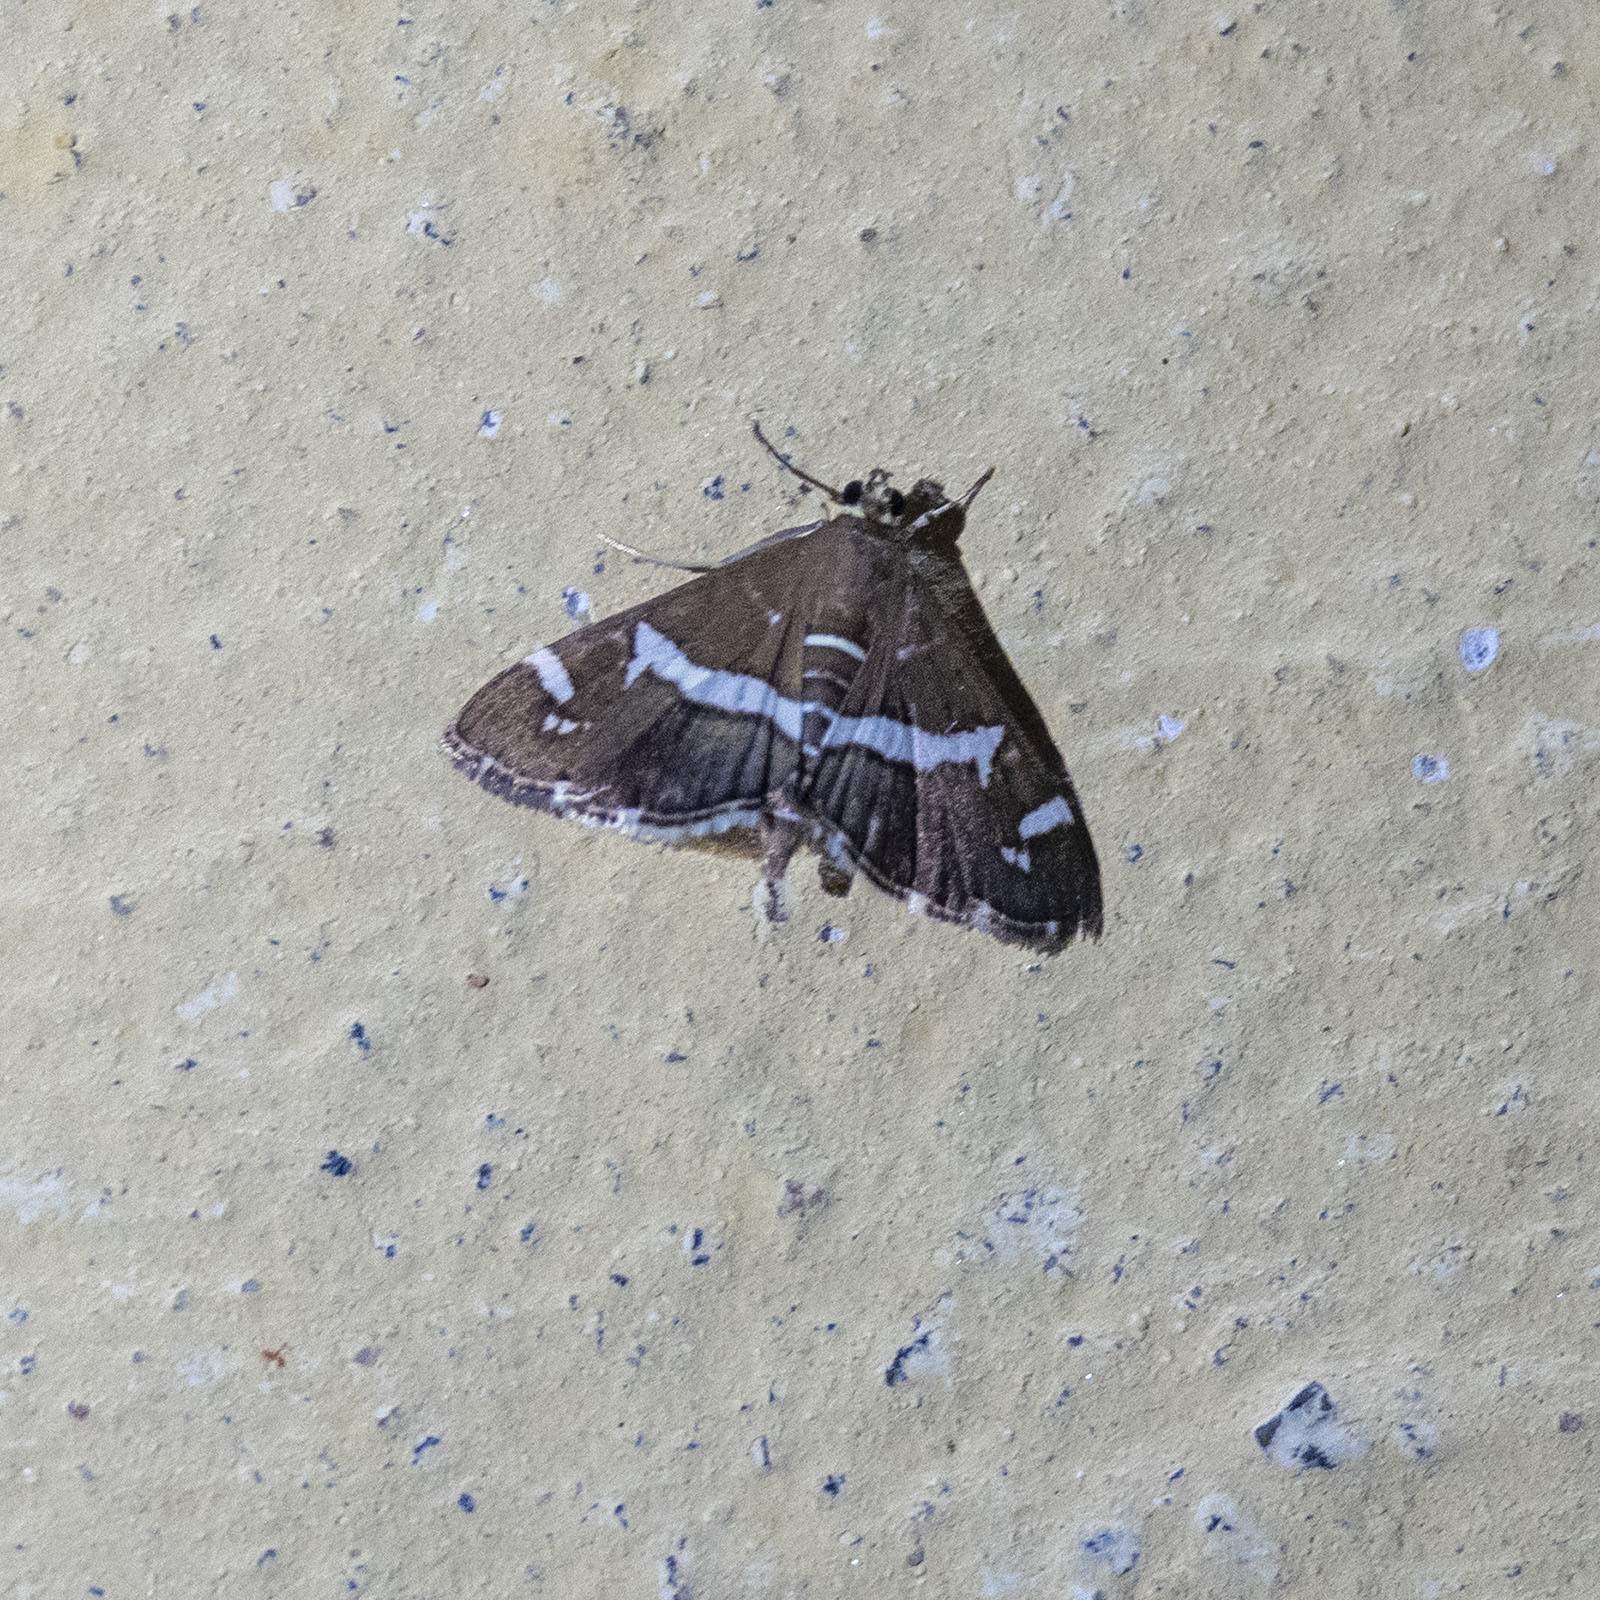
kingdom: Animalia
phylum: Arthropoda
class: Insecta
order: Lepidoptera
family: Crambidae
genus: Spoladea
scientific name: Spoladea recurvalis
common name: Beet webworm moth
